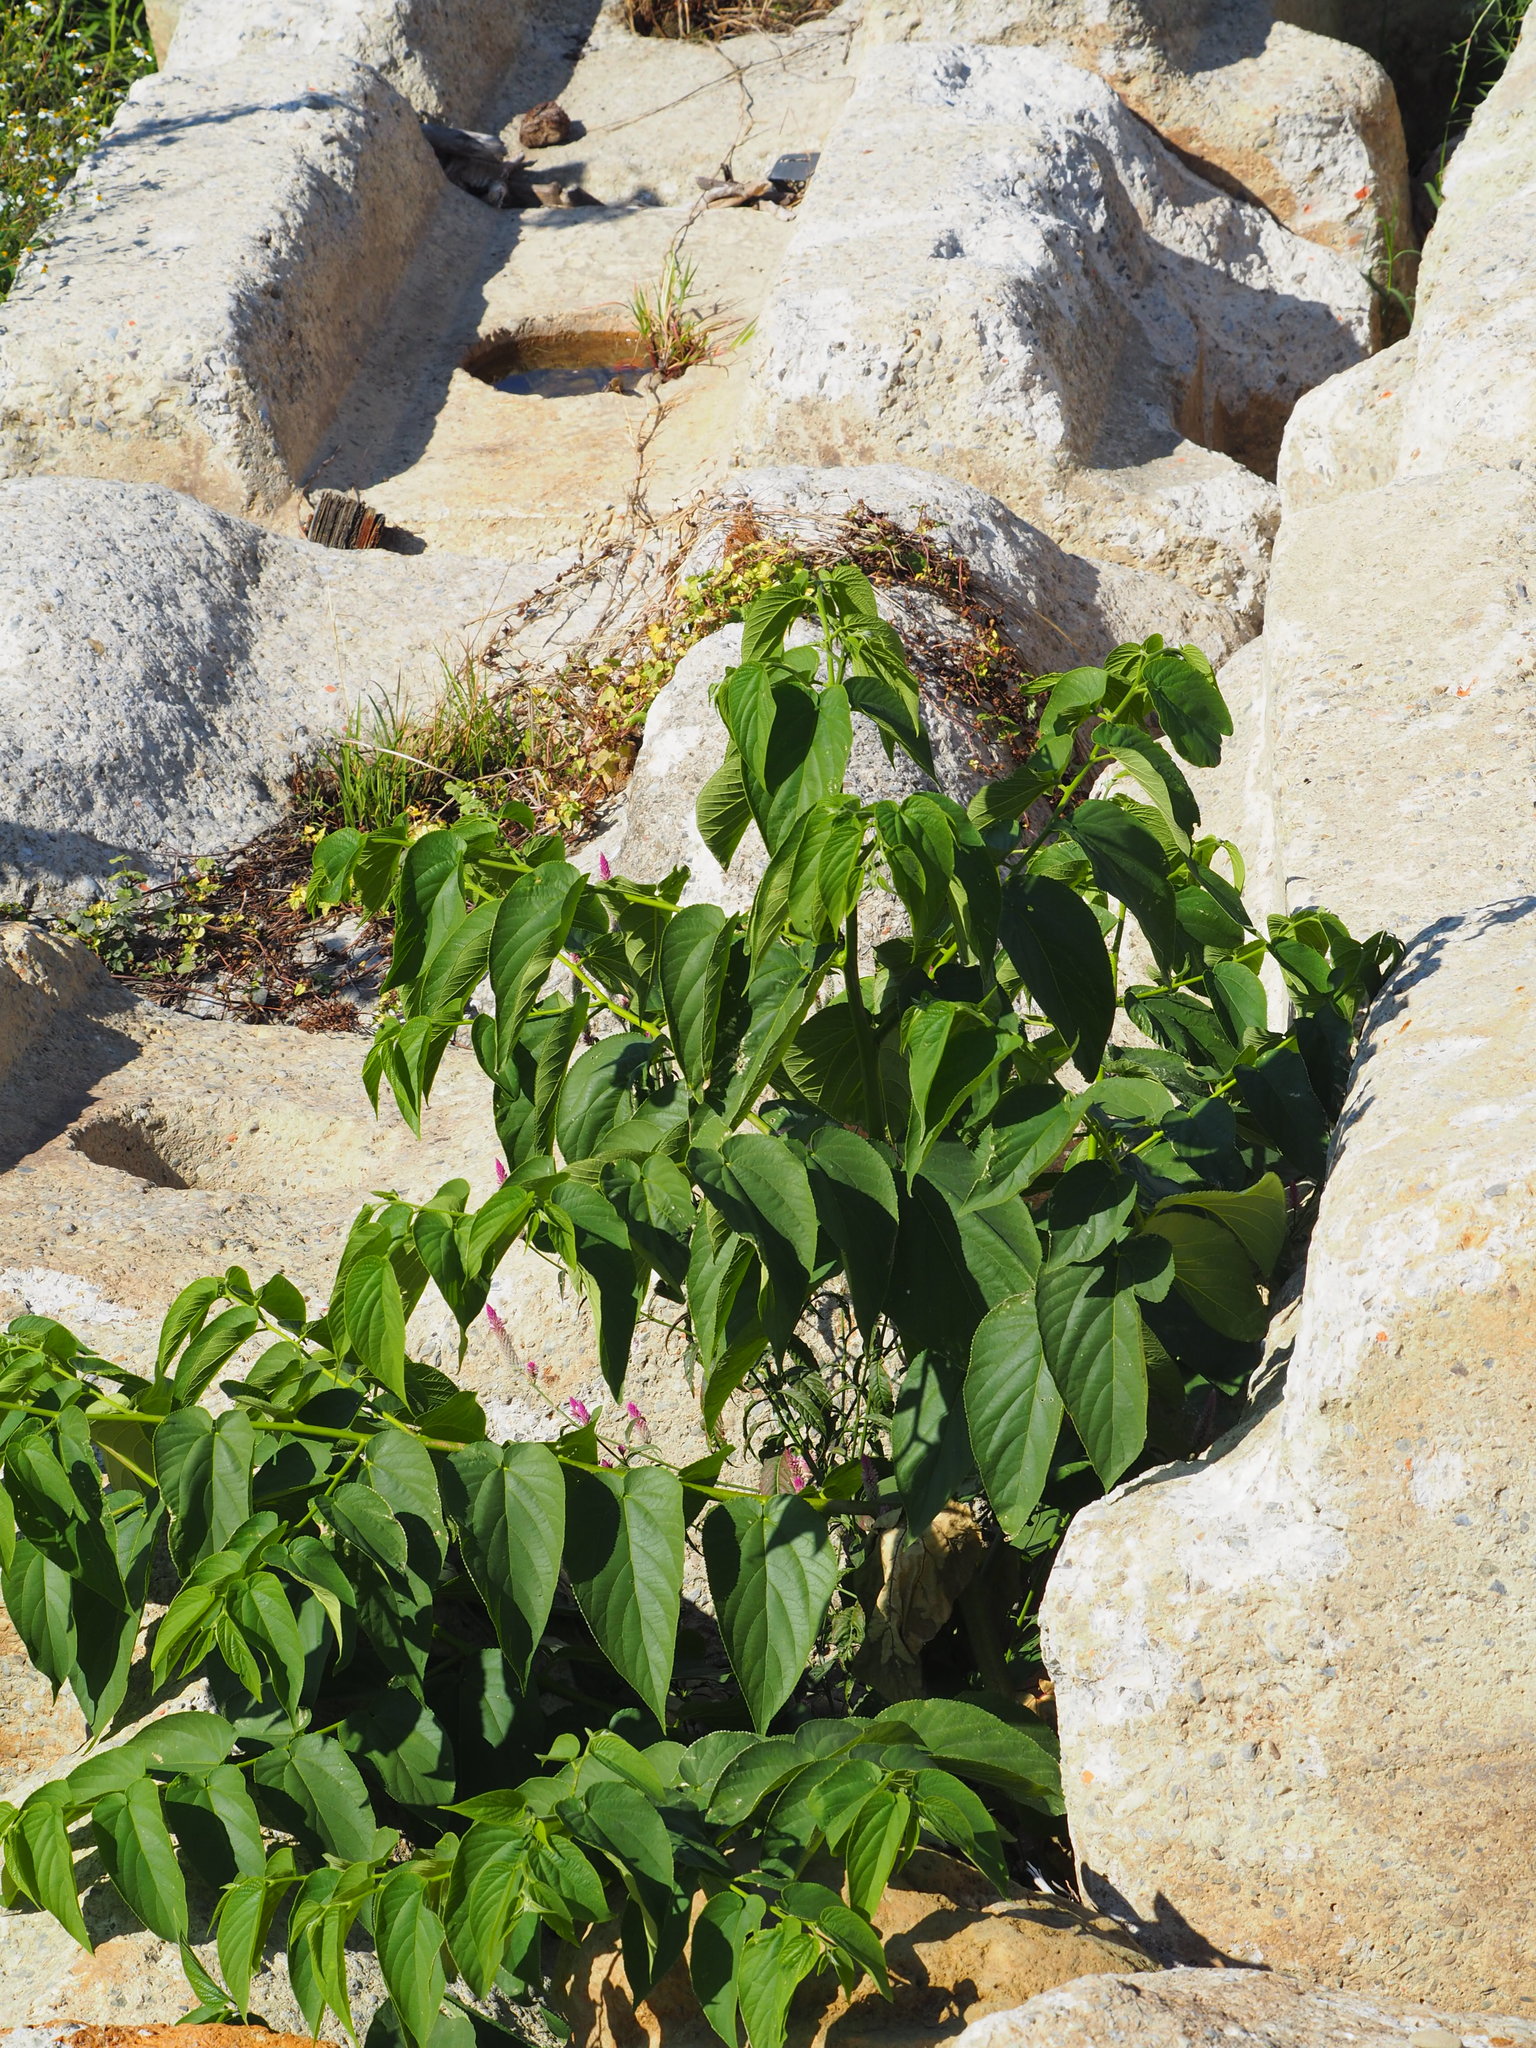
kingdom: Plantae
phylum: Tracheophyta
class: Magnoliopsida
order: Rosales
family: Cannabaceae
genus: Trema
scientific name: Trema orientale
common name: Indian charcoal tree
